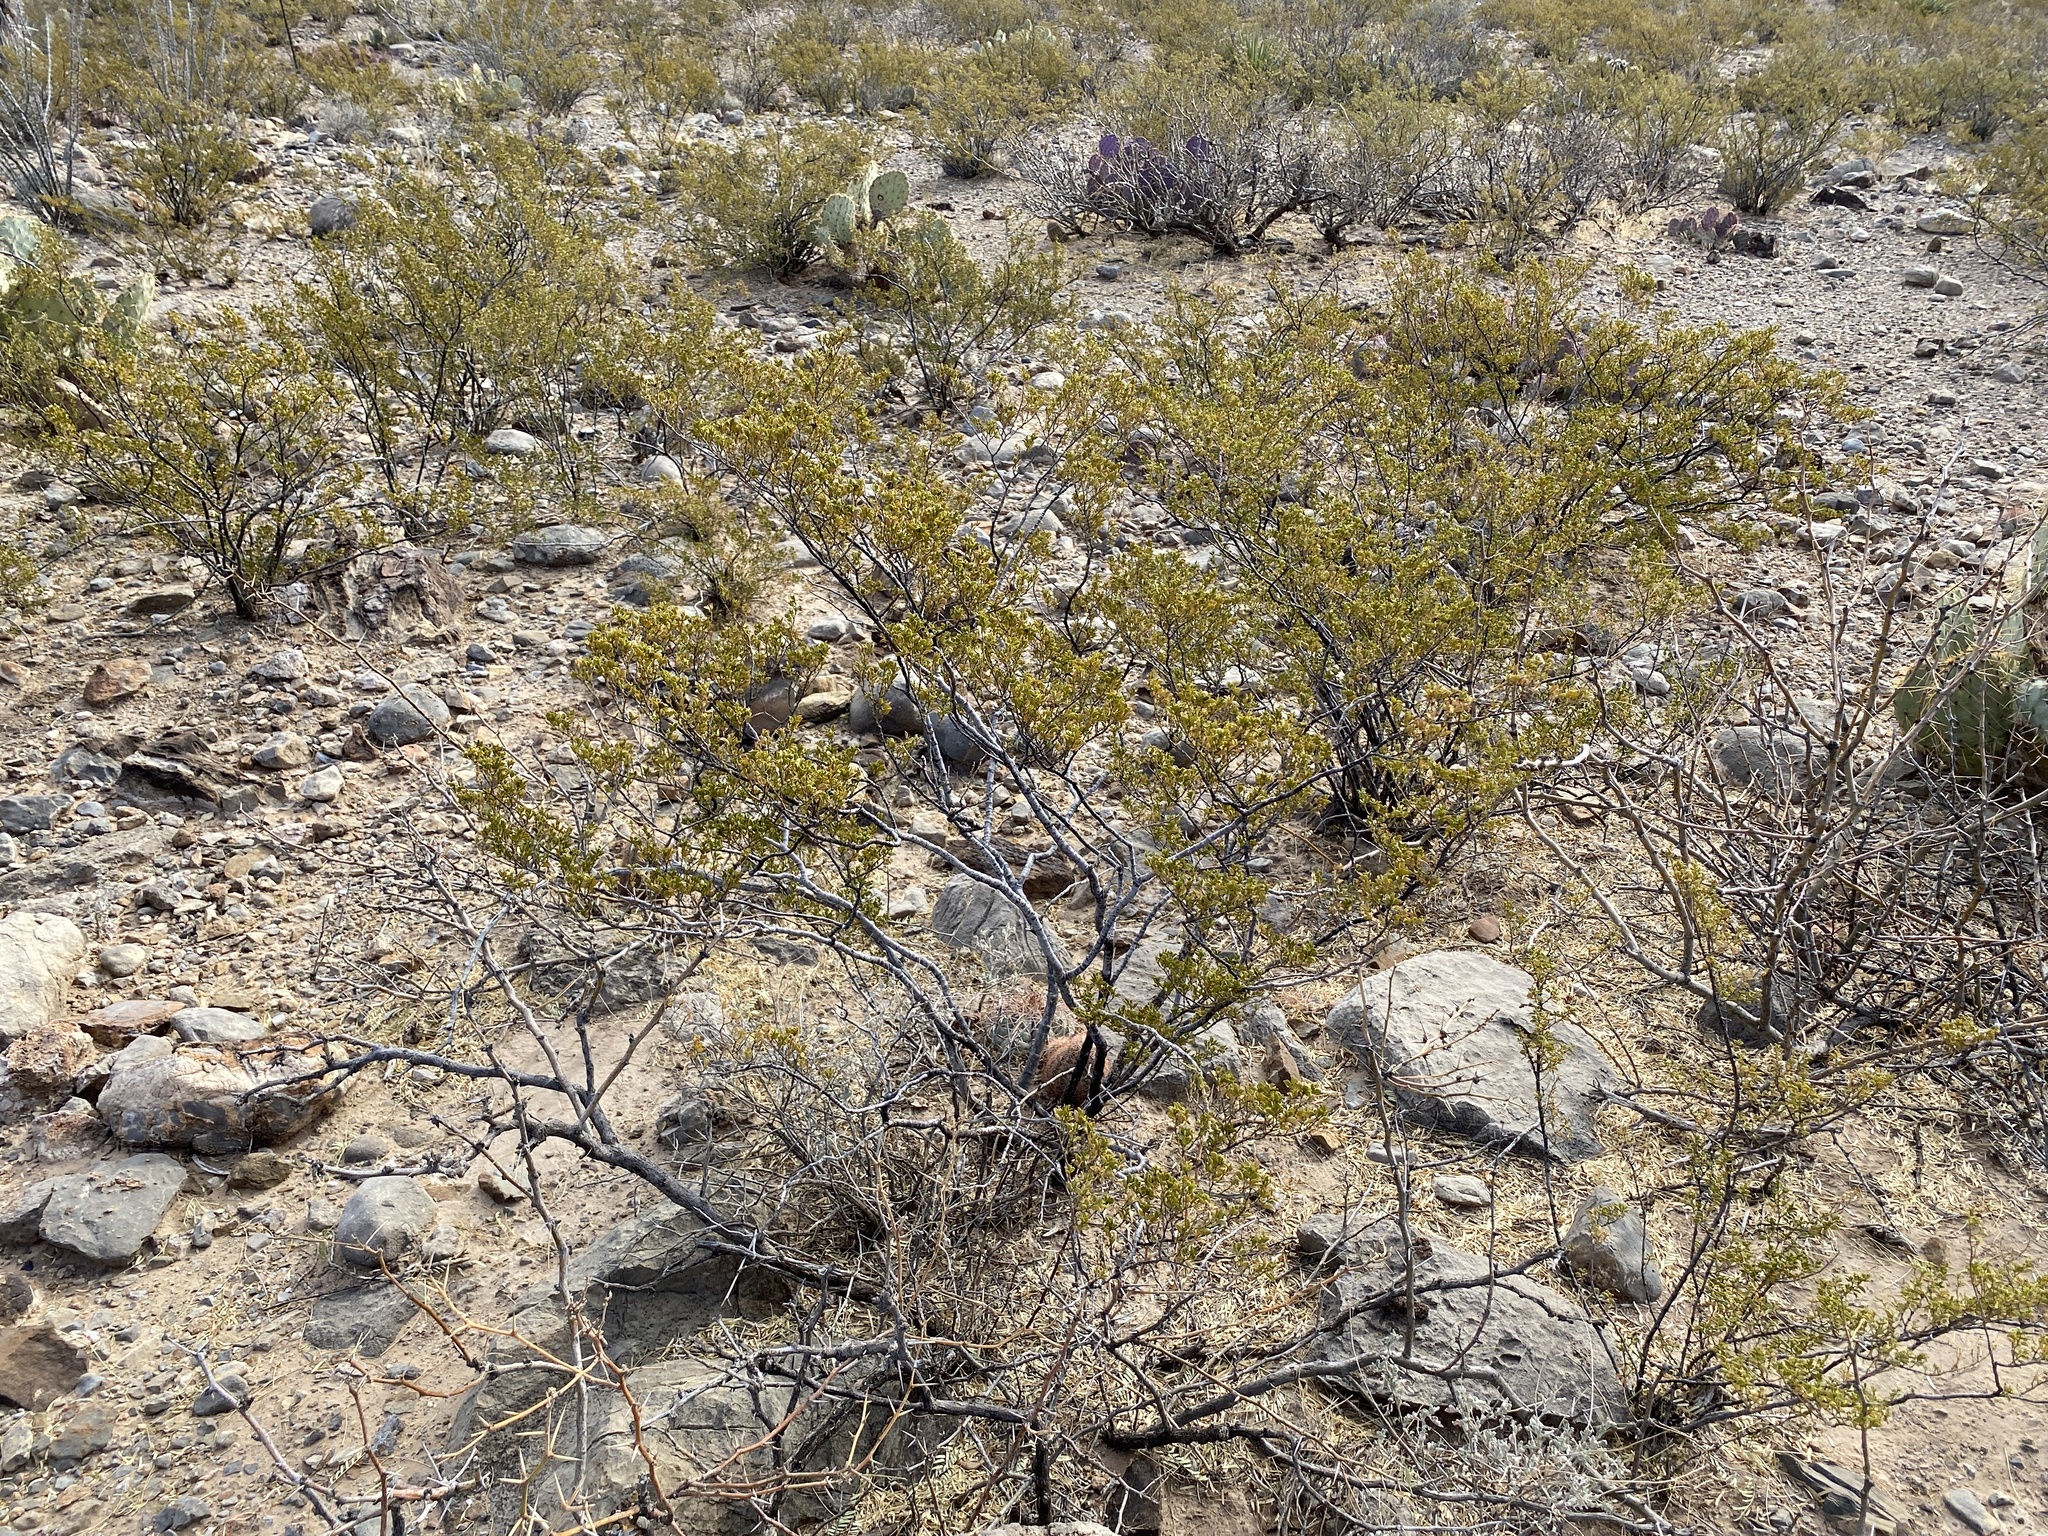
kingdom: Plantae
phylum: Tracheophyta
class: Magnoliopsida
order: Zygophyllales
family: Zygophyllaceae
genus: Larrea
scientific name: Larrea tridentata
